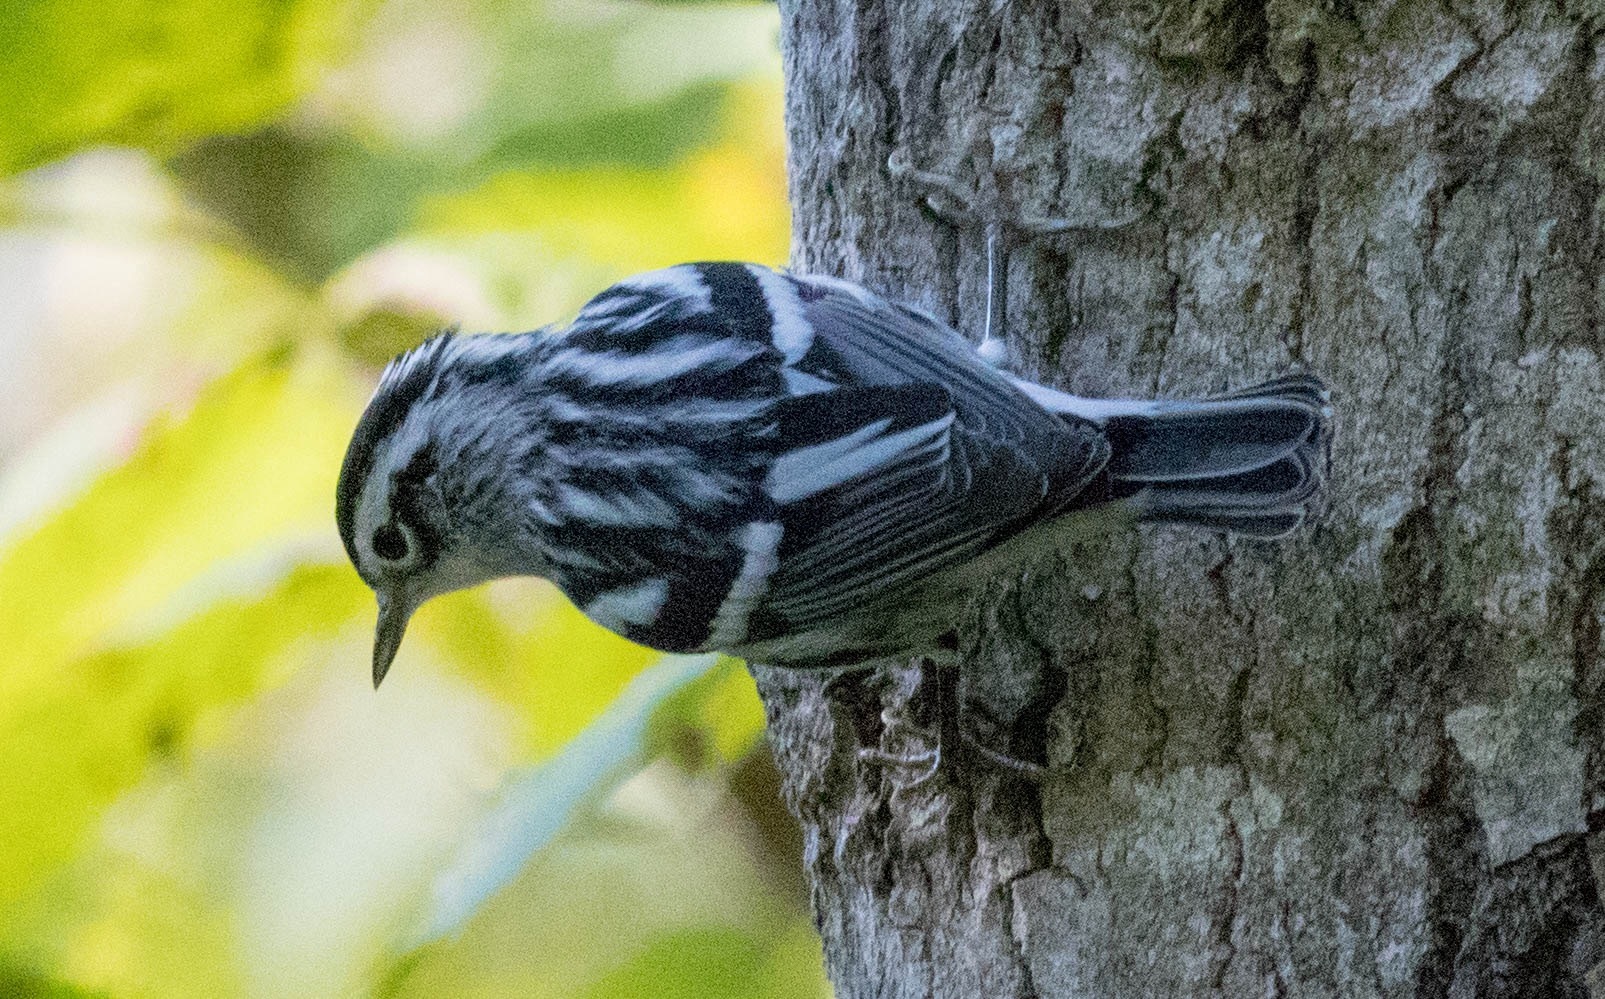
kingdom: Animalia
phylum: Chordata
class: Aves
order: Passeriformes
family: Parulidae
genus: Mniotilta
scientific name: Mniotilta varia
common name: Black-and-white warbler
